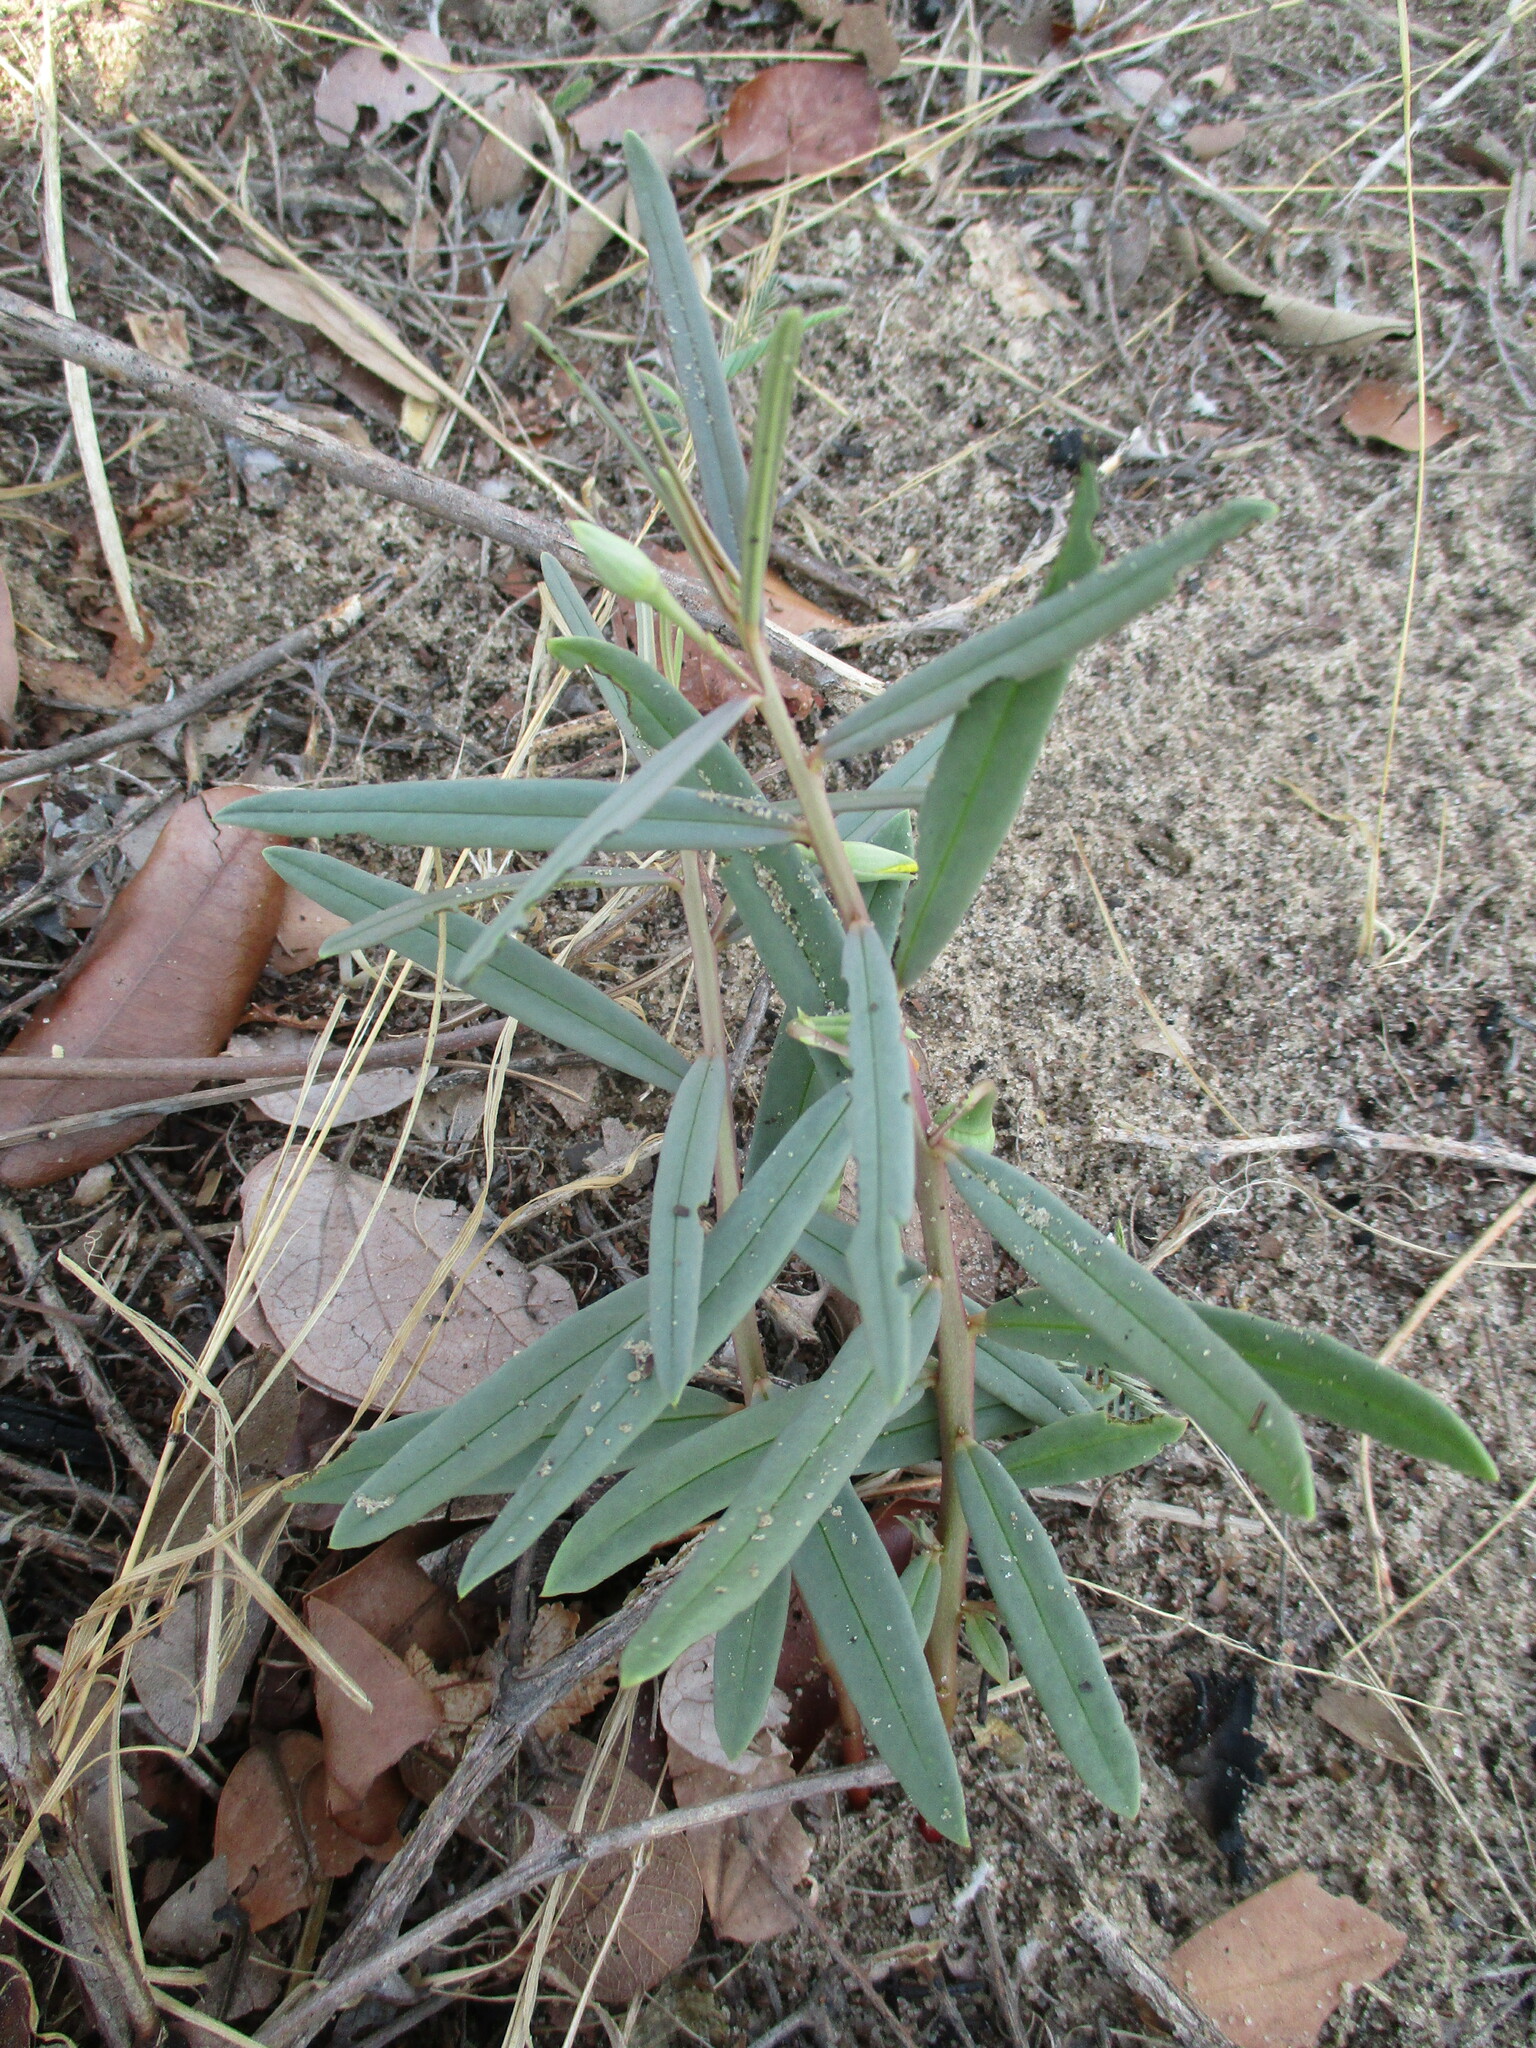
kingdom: Plantae
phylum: Tracheophyta
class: Magnoliopsida
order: Caryophyllales
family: Talinaceae
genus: Talinum
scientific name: Talinum caffrum
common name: Flameflower
